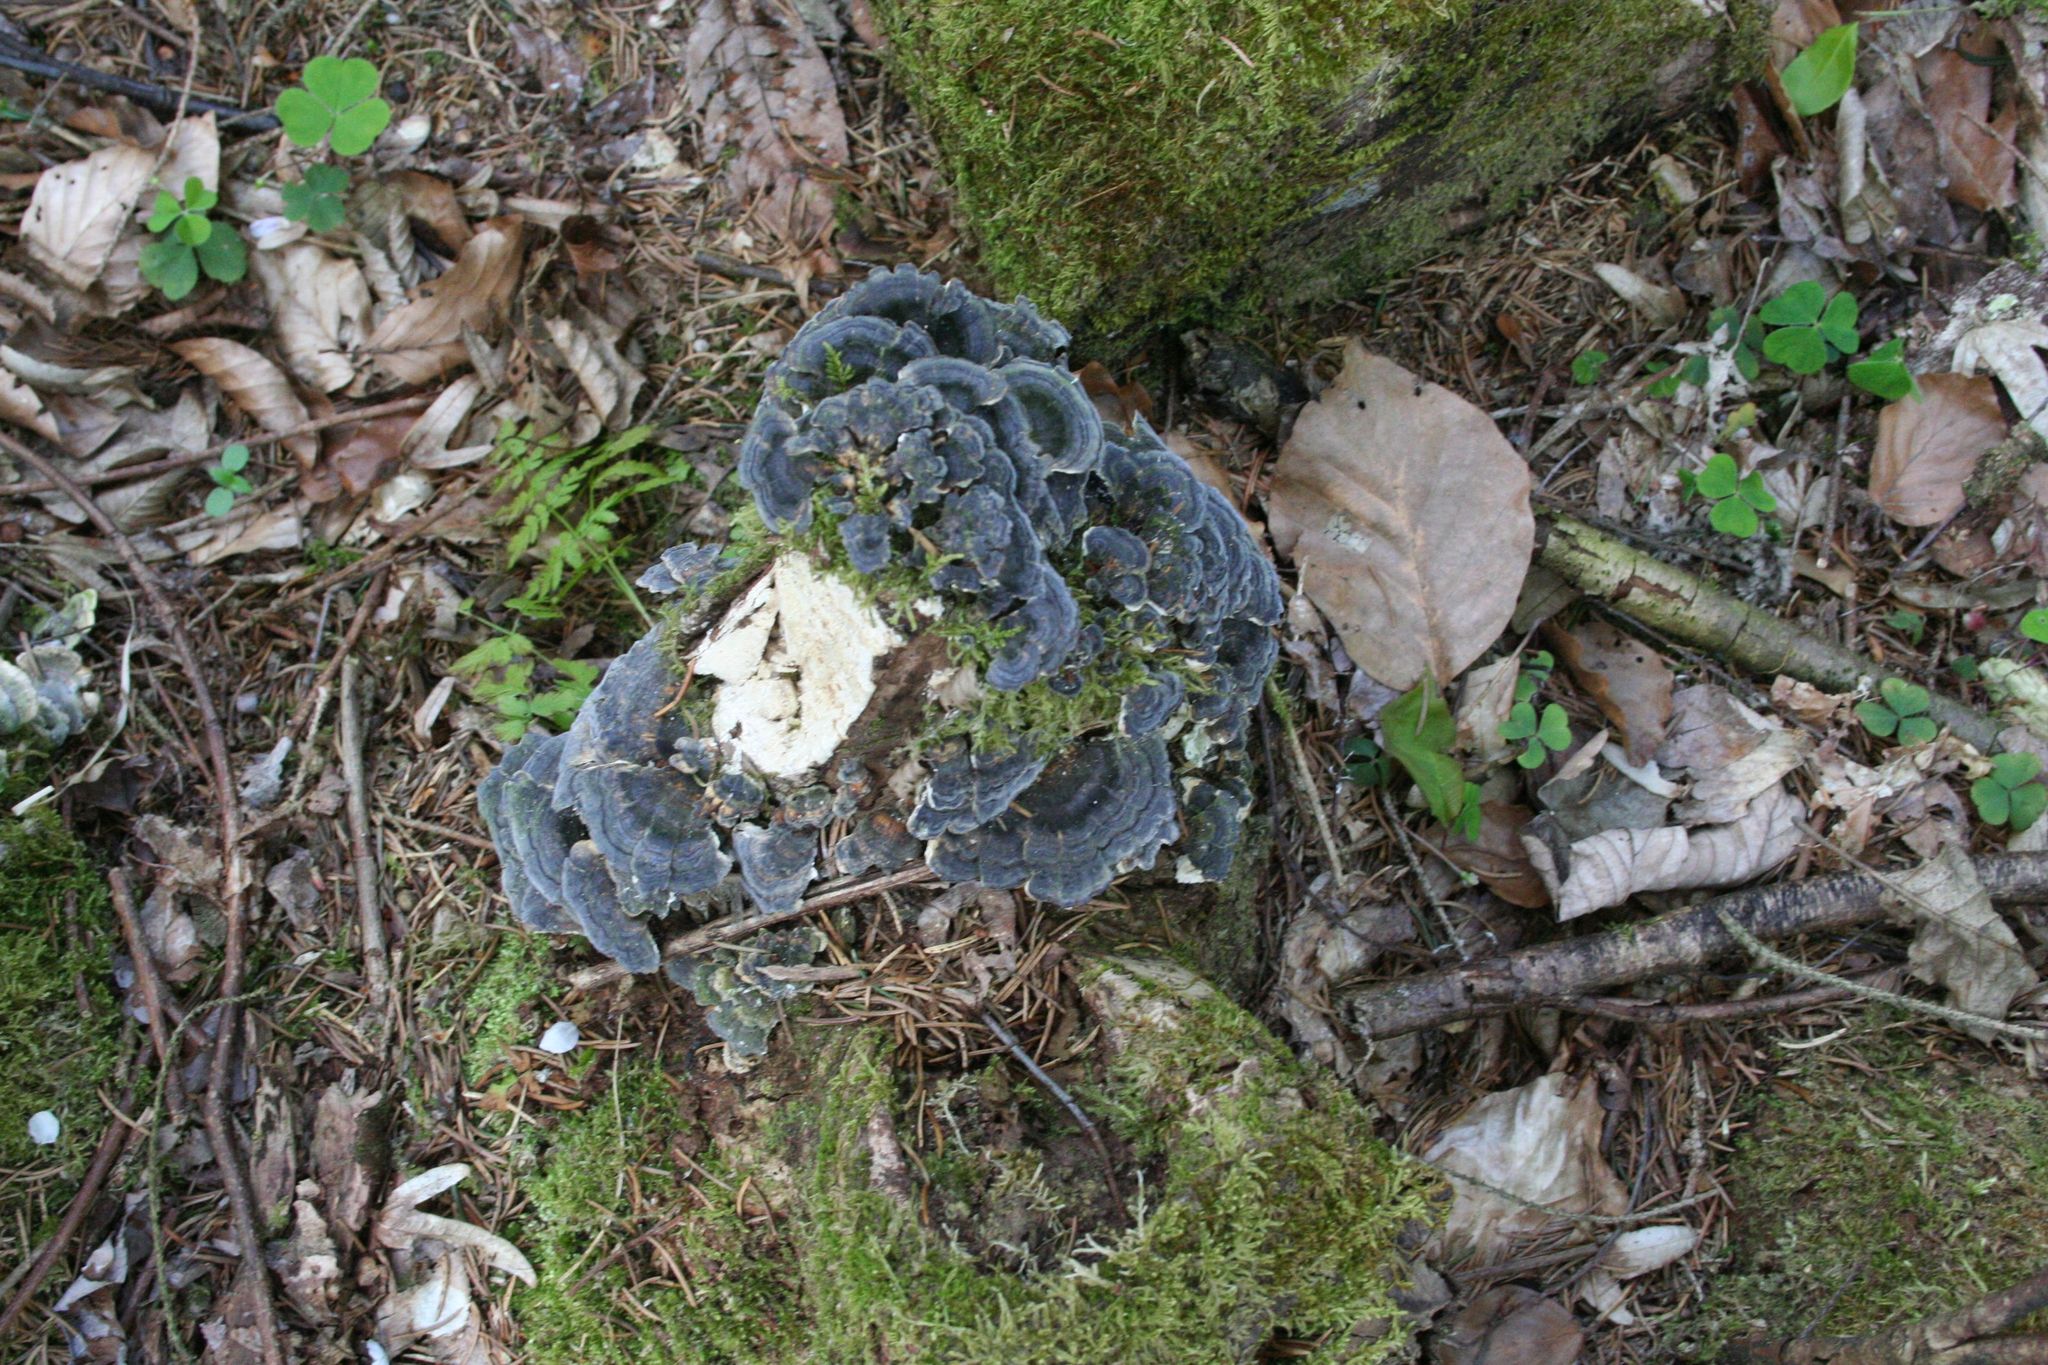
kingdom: Fungi
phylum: Basidiomycota
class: Agaricomycetes
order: Polyporales
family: Polyporaceae
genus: Trametes
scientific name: Trametes versicolor
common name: Turkeytail
